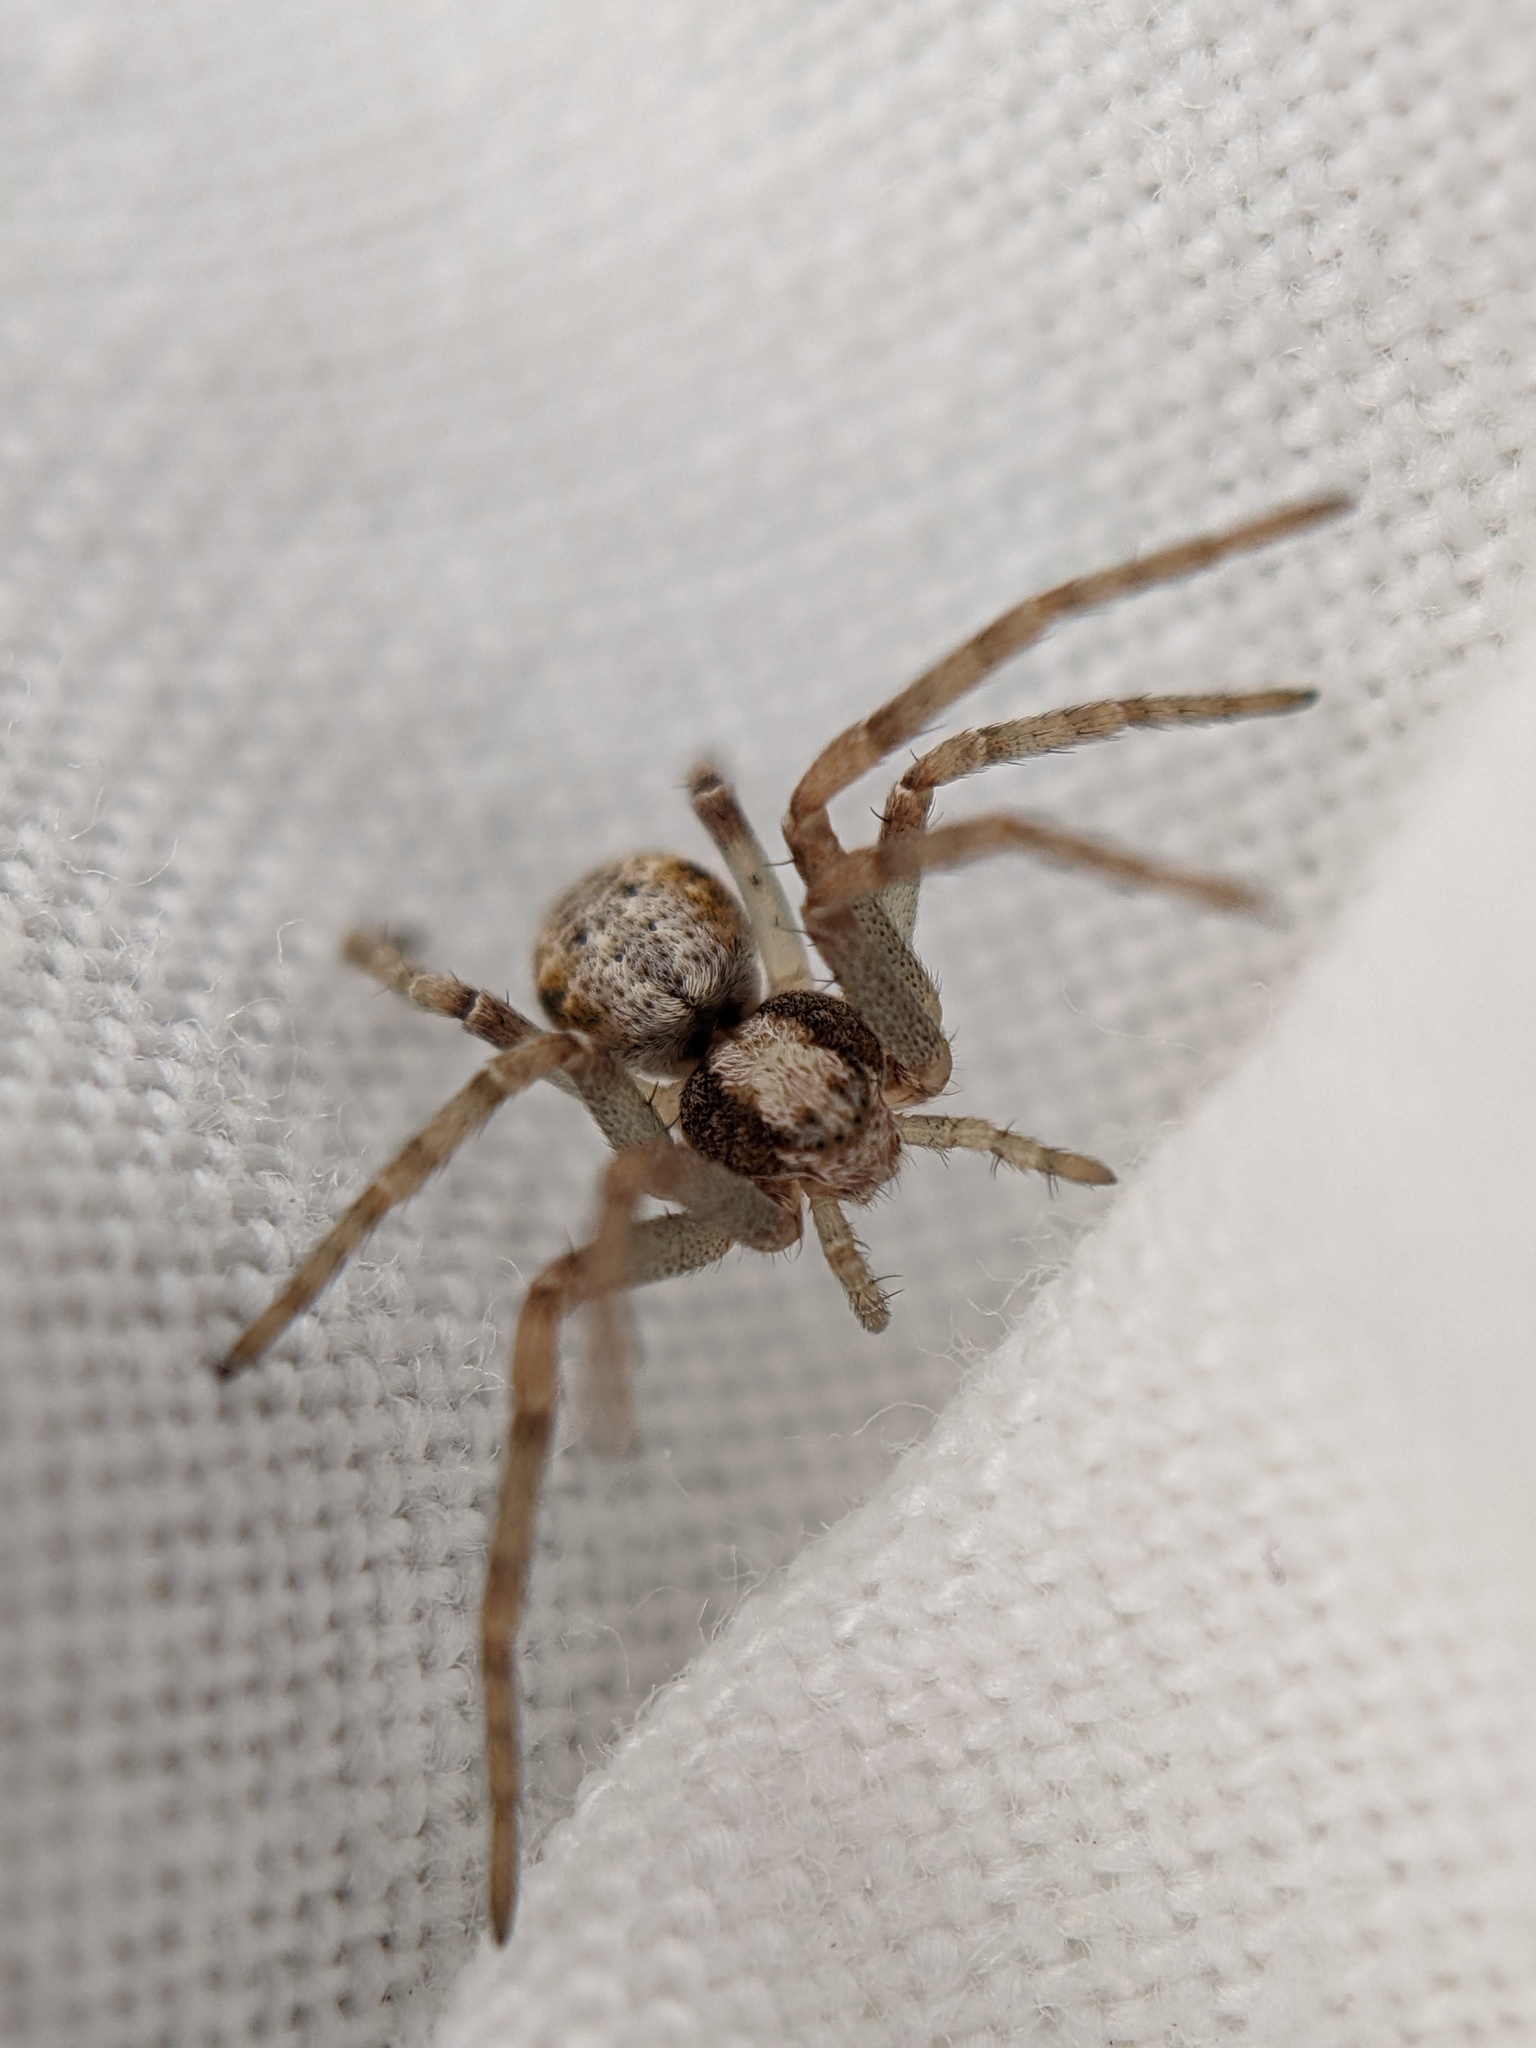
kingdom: Animalia
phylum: Arthropoda
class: Arachnida
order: Araneae
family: Philodromidae
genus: Philodromus
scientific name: Philodromus
